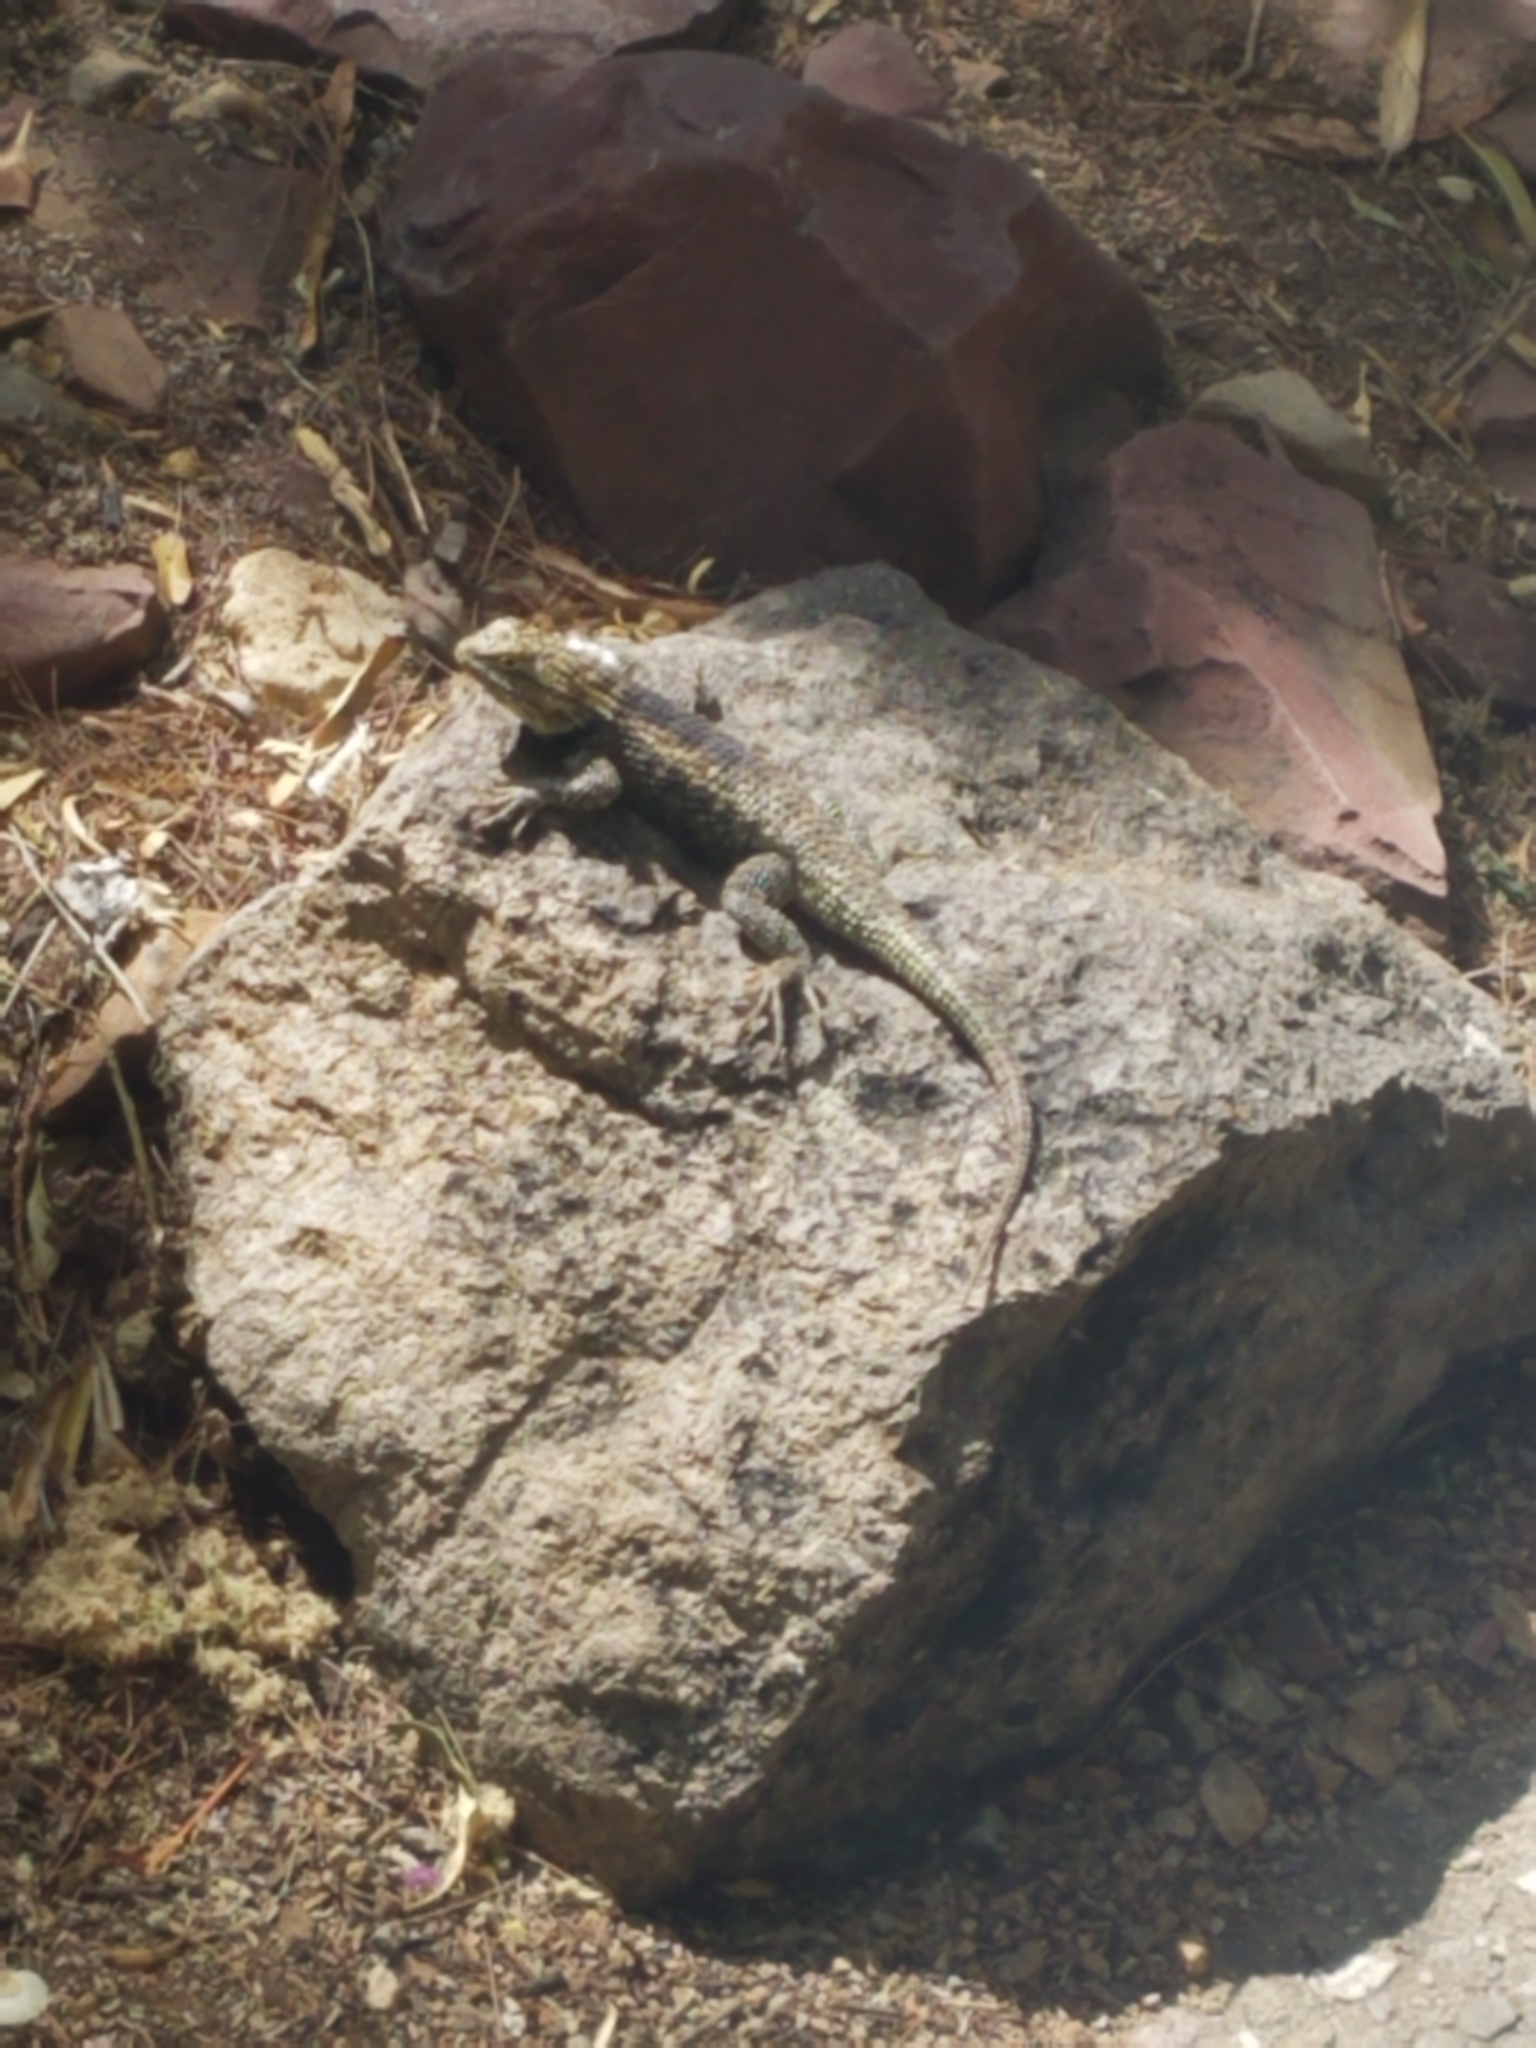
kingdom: Animalia
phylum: Chordata
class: Squamata
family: Phrynosomatidae
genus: Sceloporus
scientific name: Sceloporus magister
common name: Desert spiny lizard
